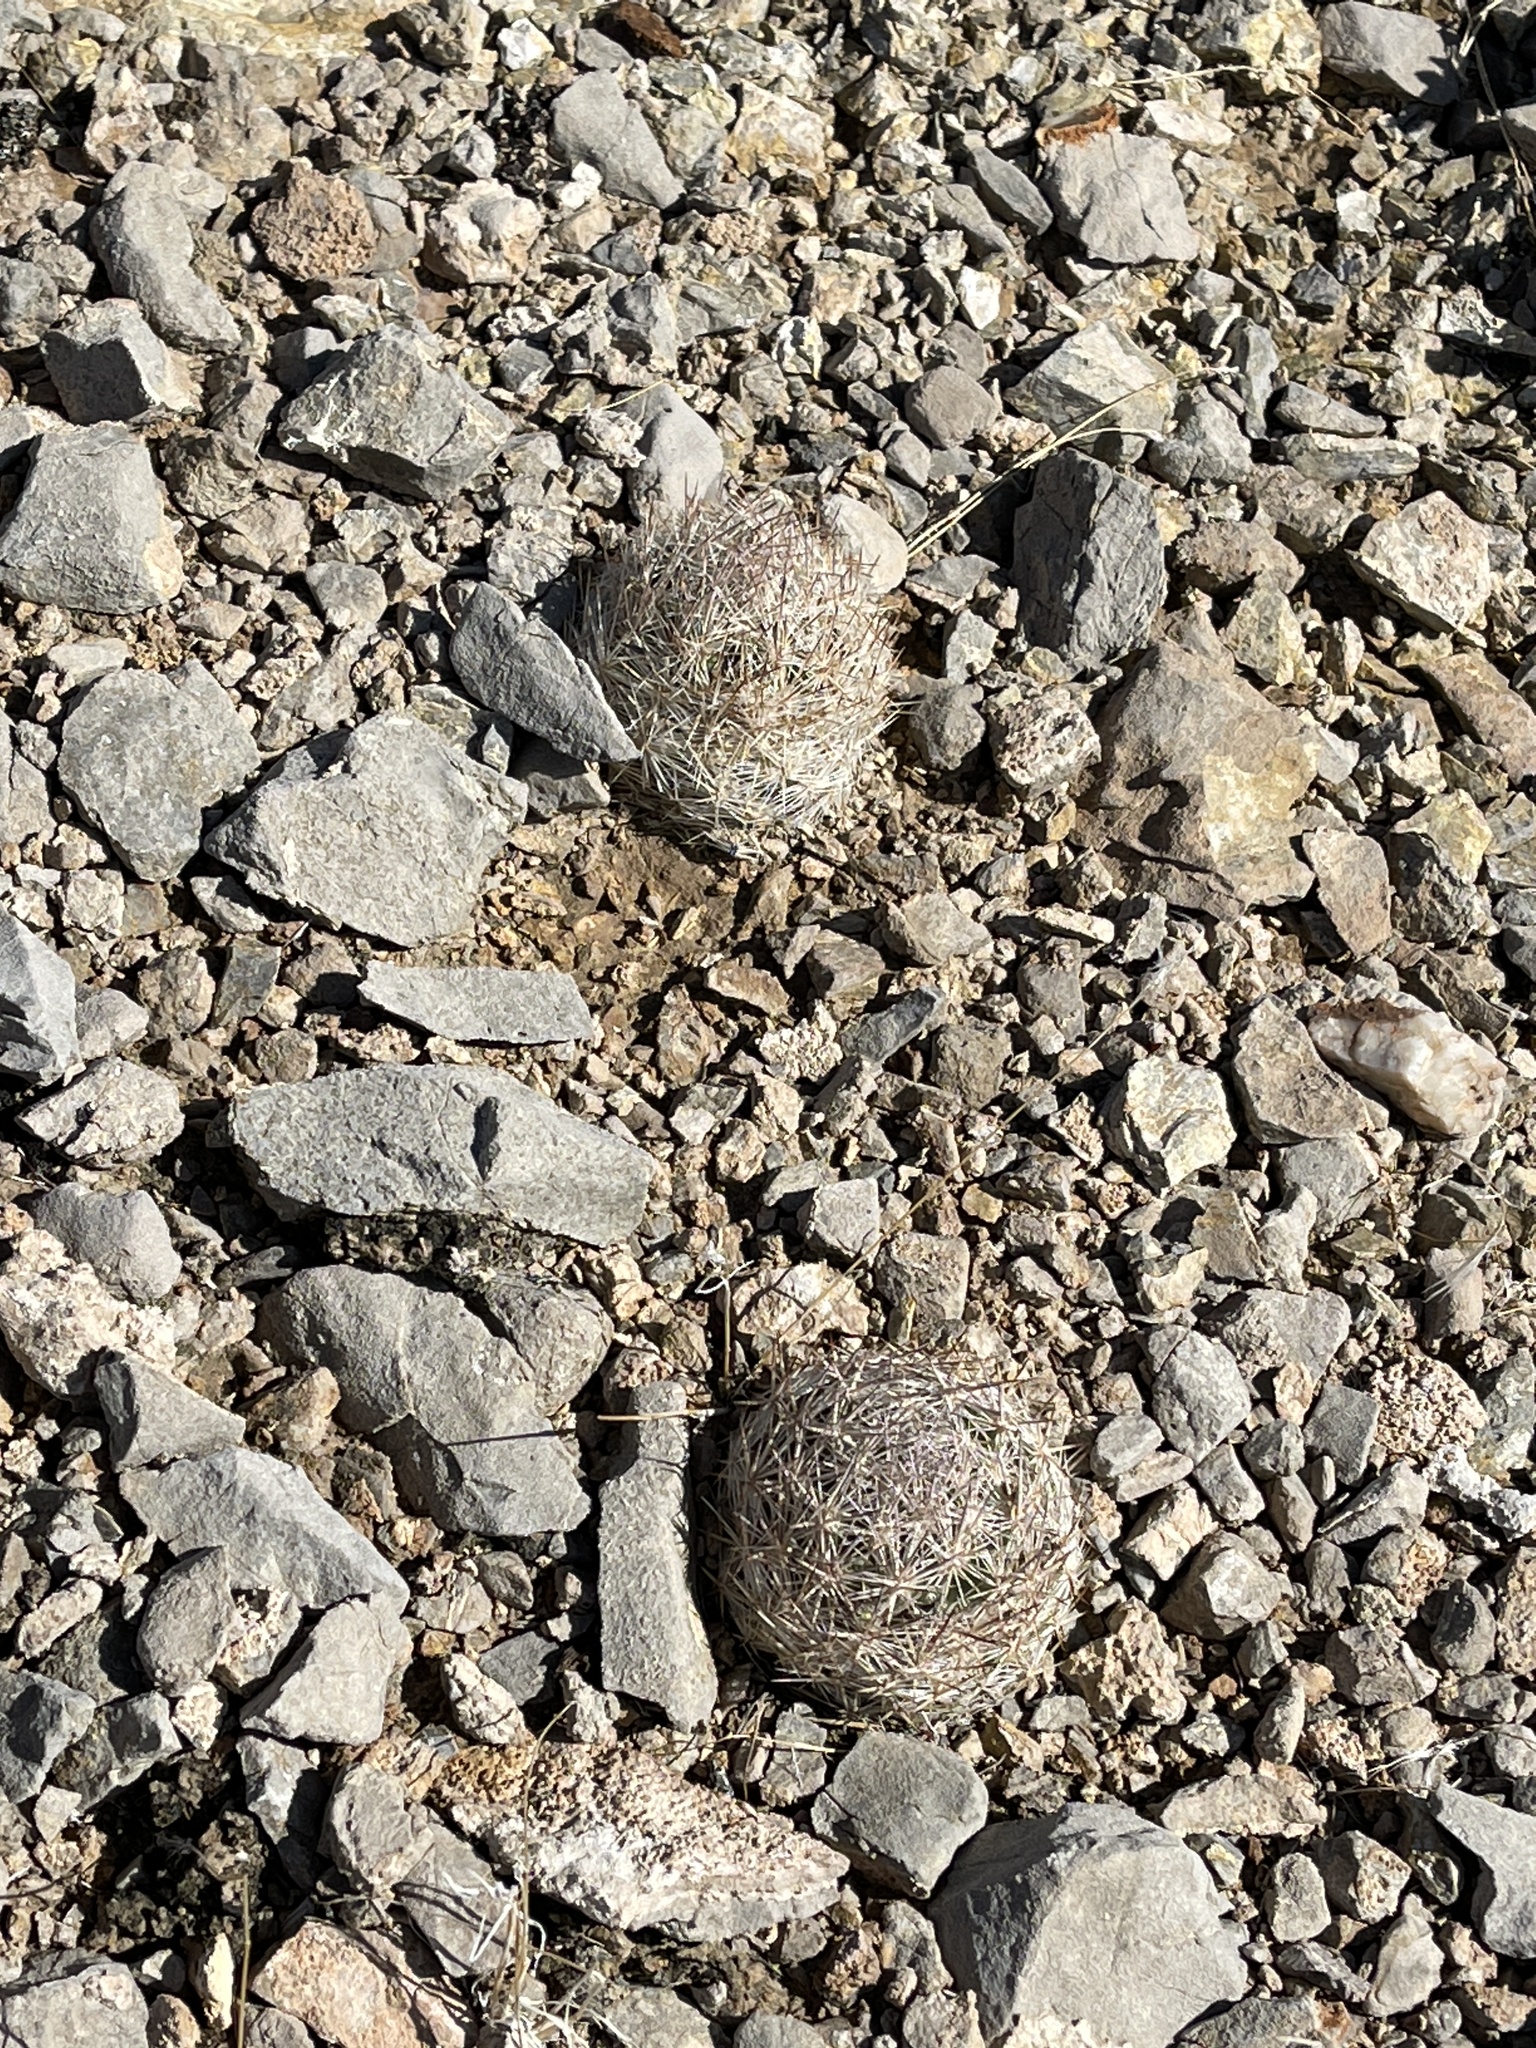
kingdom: Plantae
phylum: Tracheophyta
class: Magnoliopsida
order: Caryophyllales
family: Cactaceae
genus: Pelecyphora
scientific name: Pelecyphora vivipara
